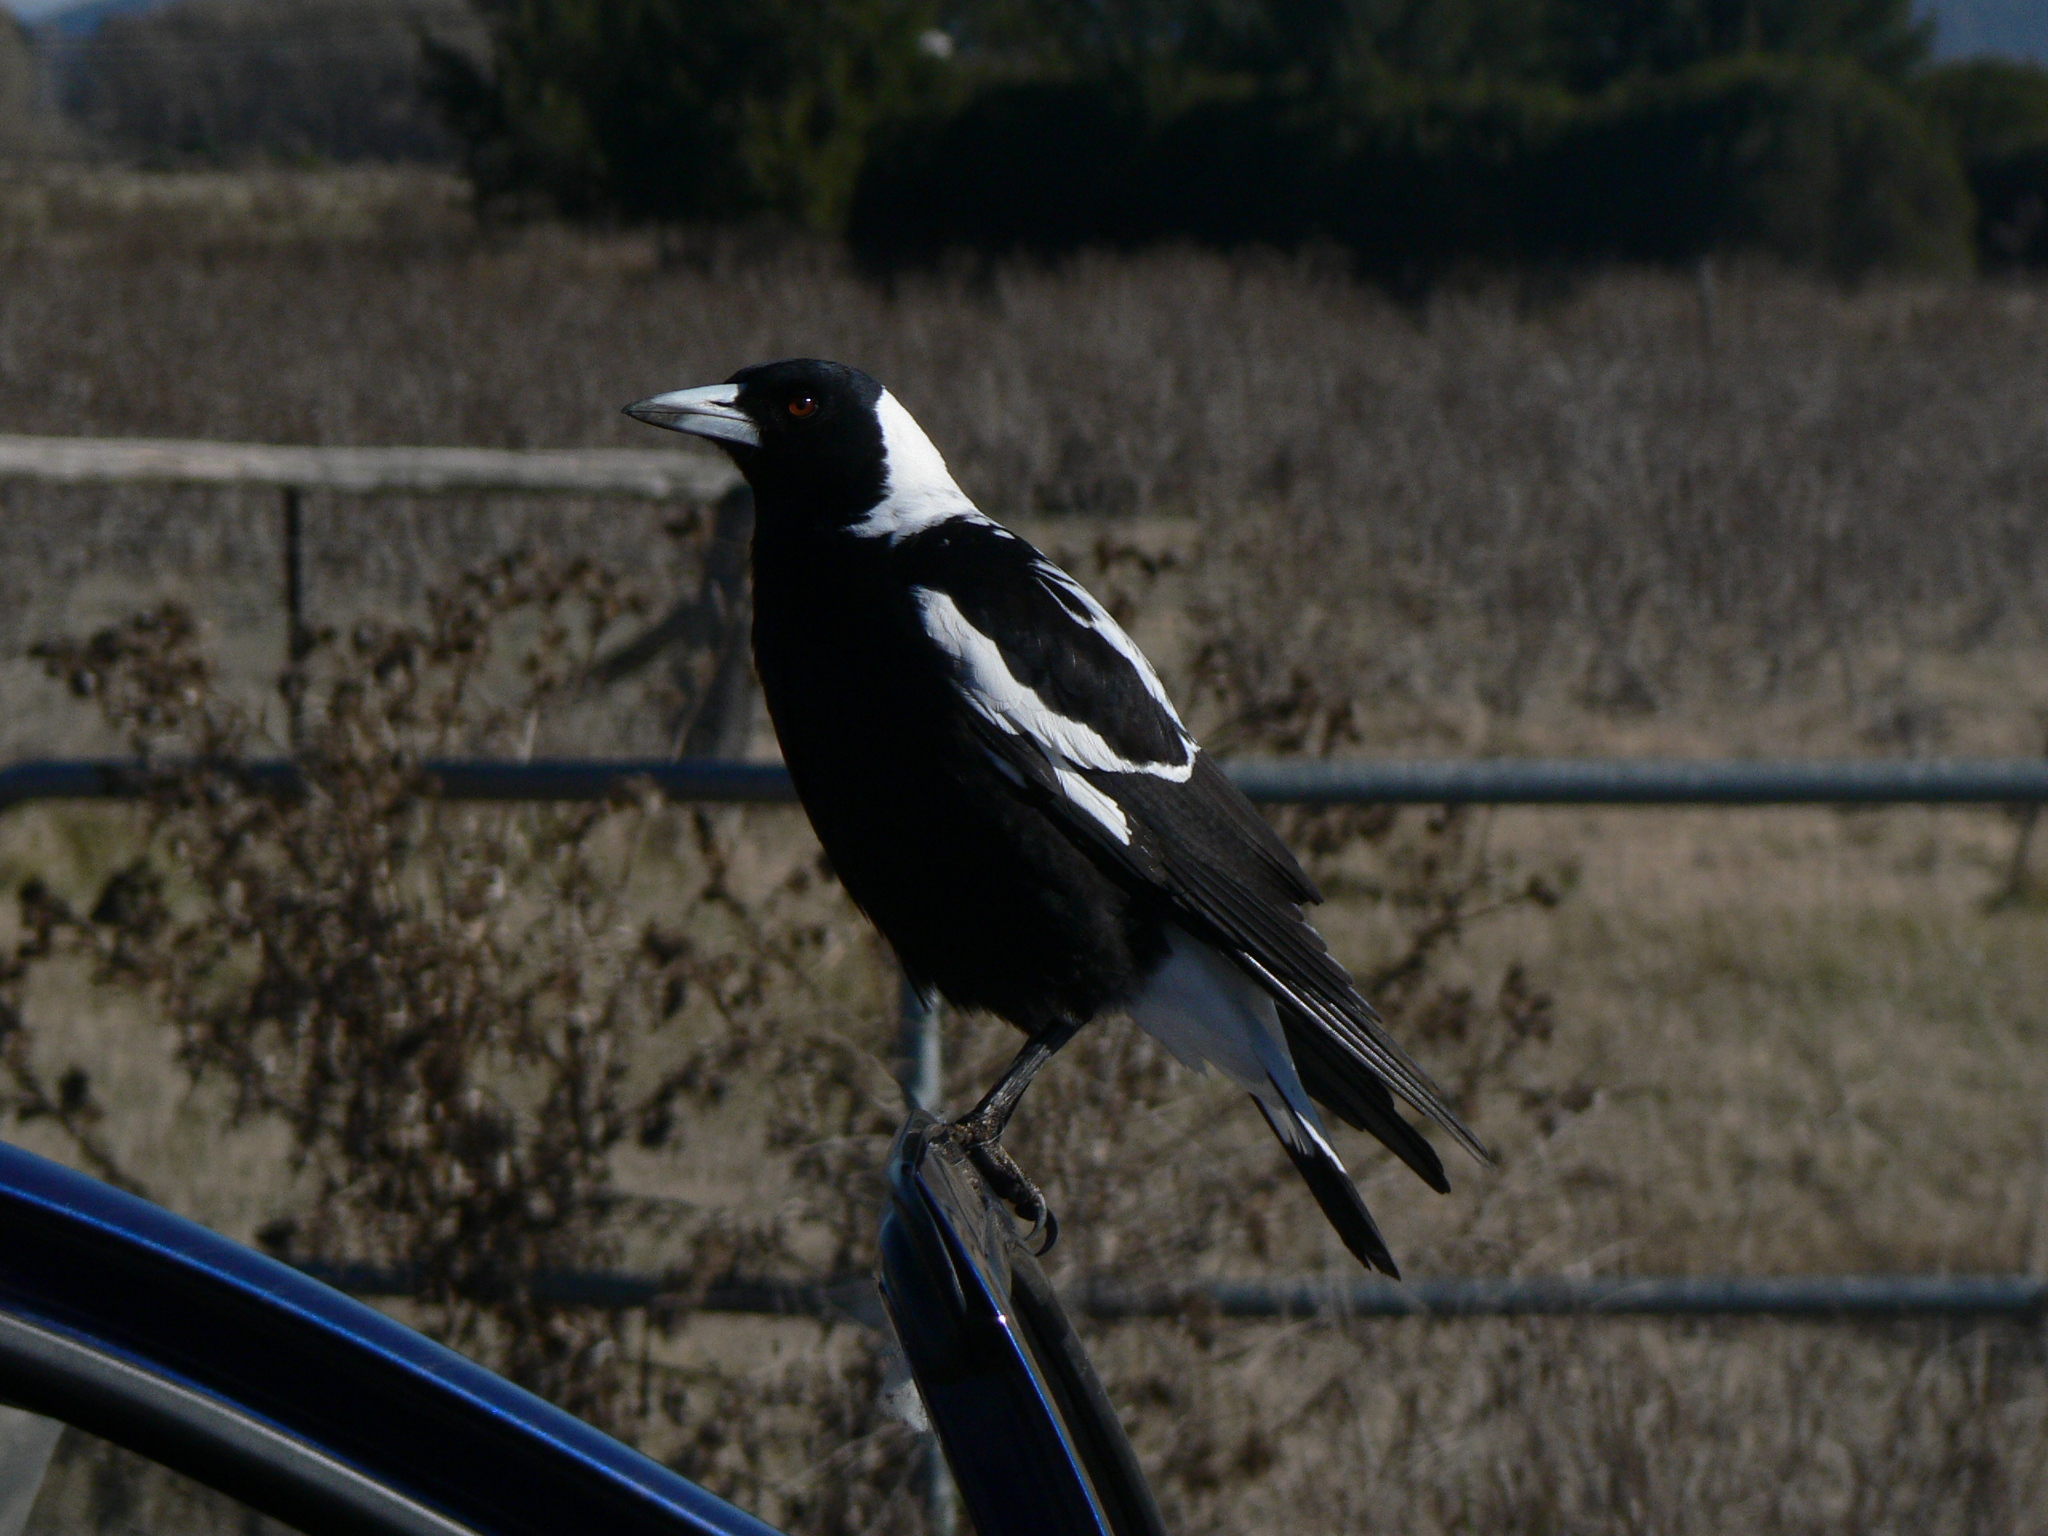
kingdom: Animalia
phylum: Chordata
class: Aves
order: Passeriformes
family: Cracticidae
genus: Gymnorhina
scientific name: Gymnorhina tibicen
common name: Australian magpie
